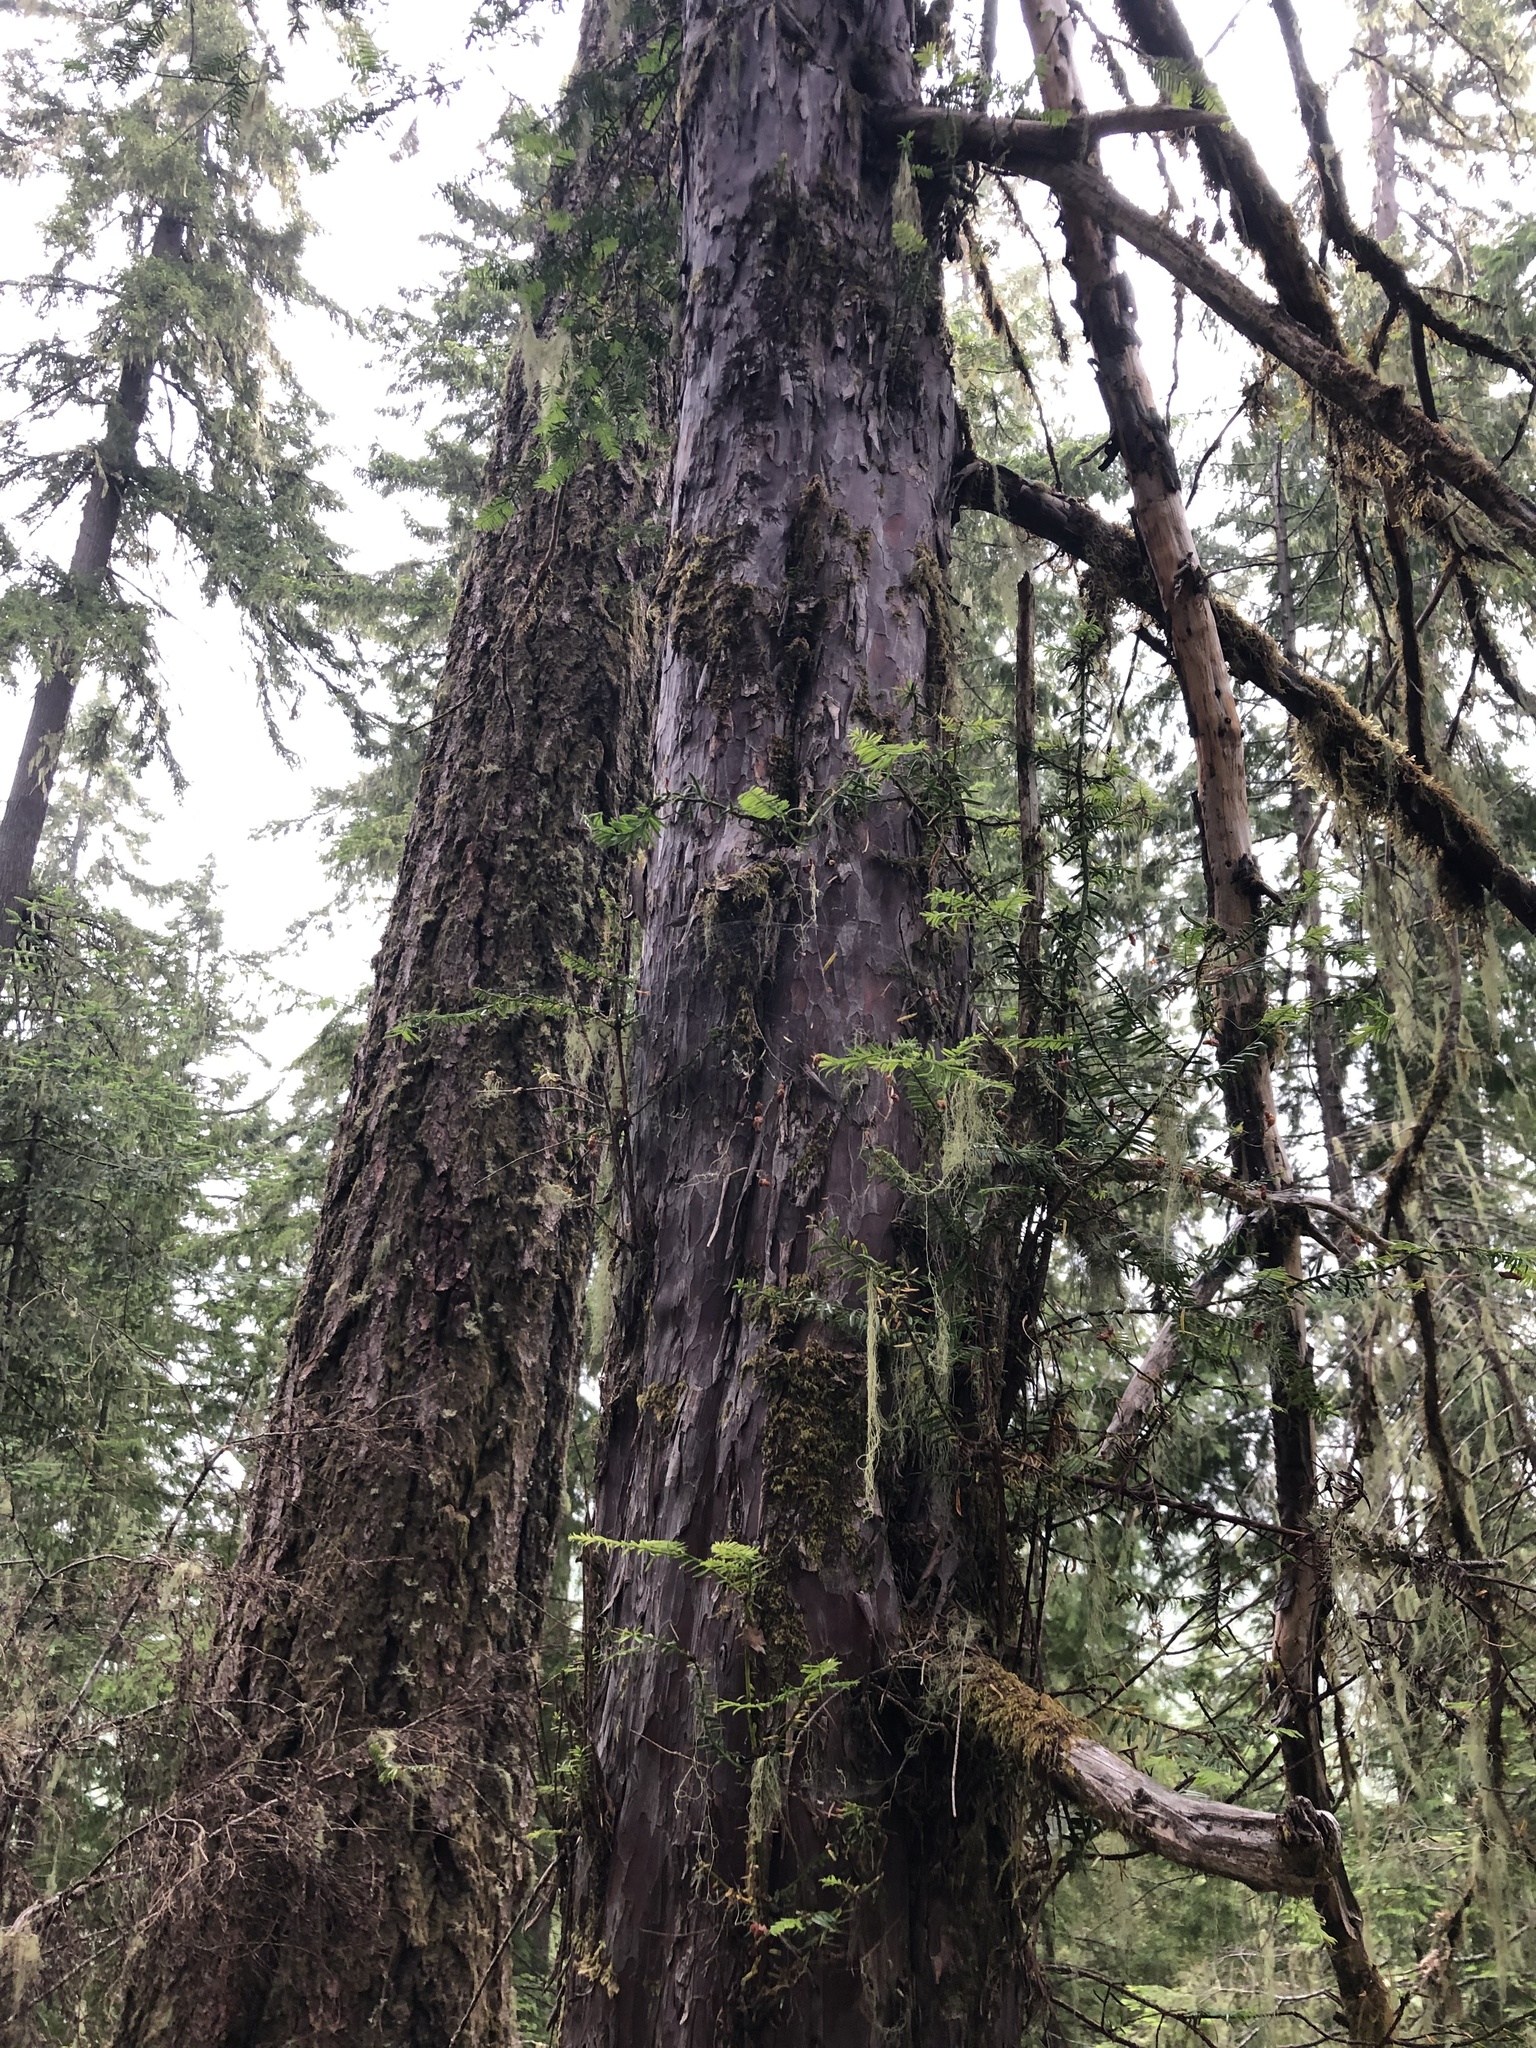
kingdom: Plantae
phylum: Tracheophyta
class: Pinopsida
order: Pinales
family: Taxaceae
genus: Taxus
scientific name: Taxus brevifolia
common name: Pacific yew
